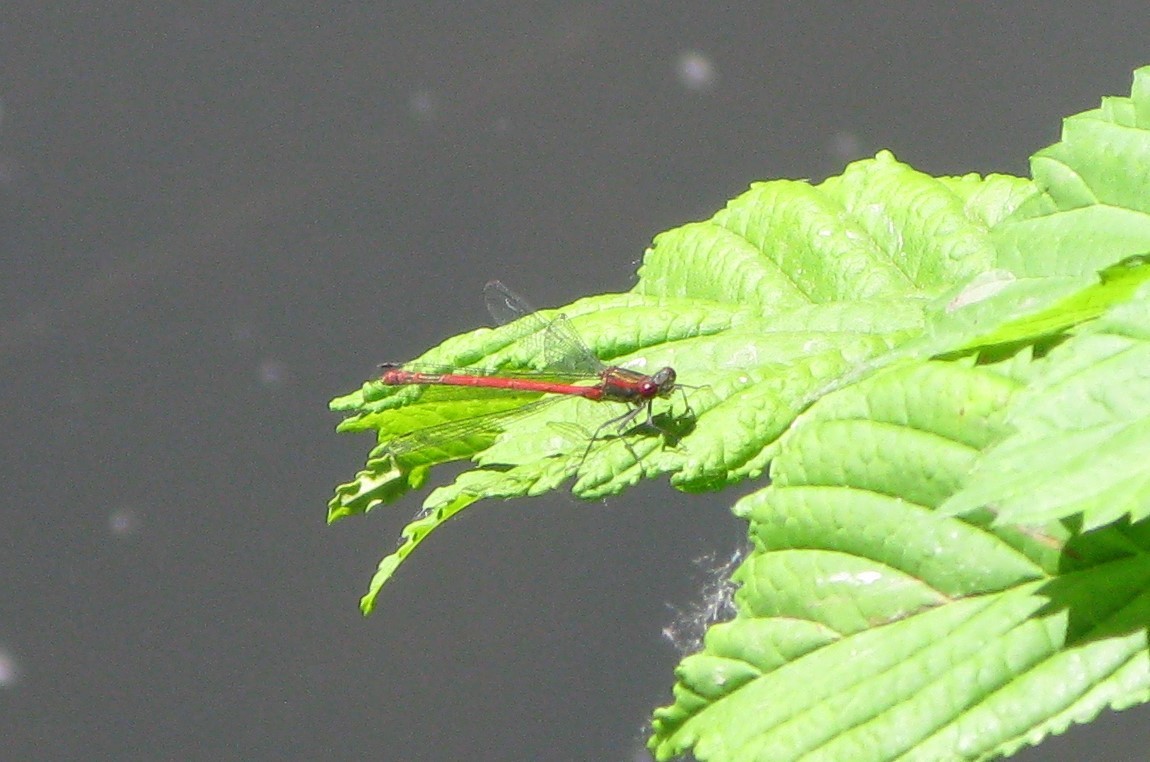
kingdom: Animalia
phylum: Arthropoda
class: Insecta
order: Odonata
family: Coenagrionidae
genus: Pyrrhosoma
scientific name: Pyrrhosoma nymphula
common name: Large red damsel
